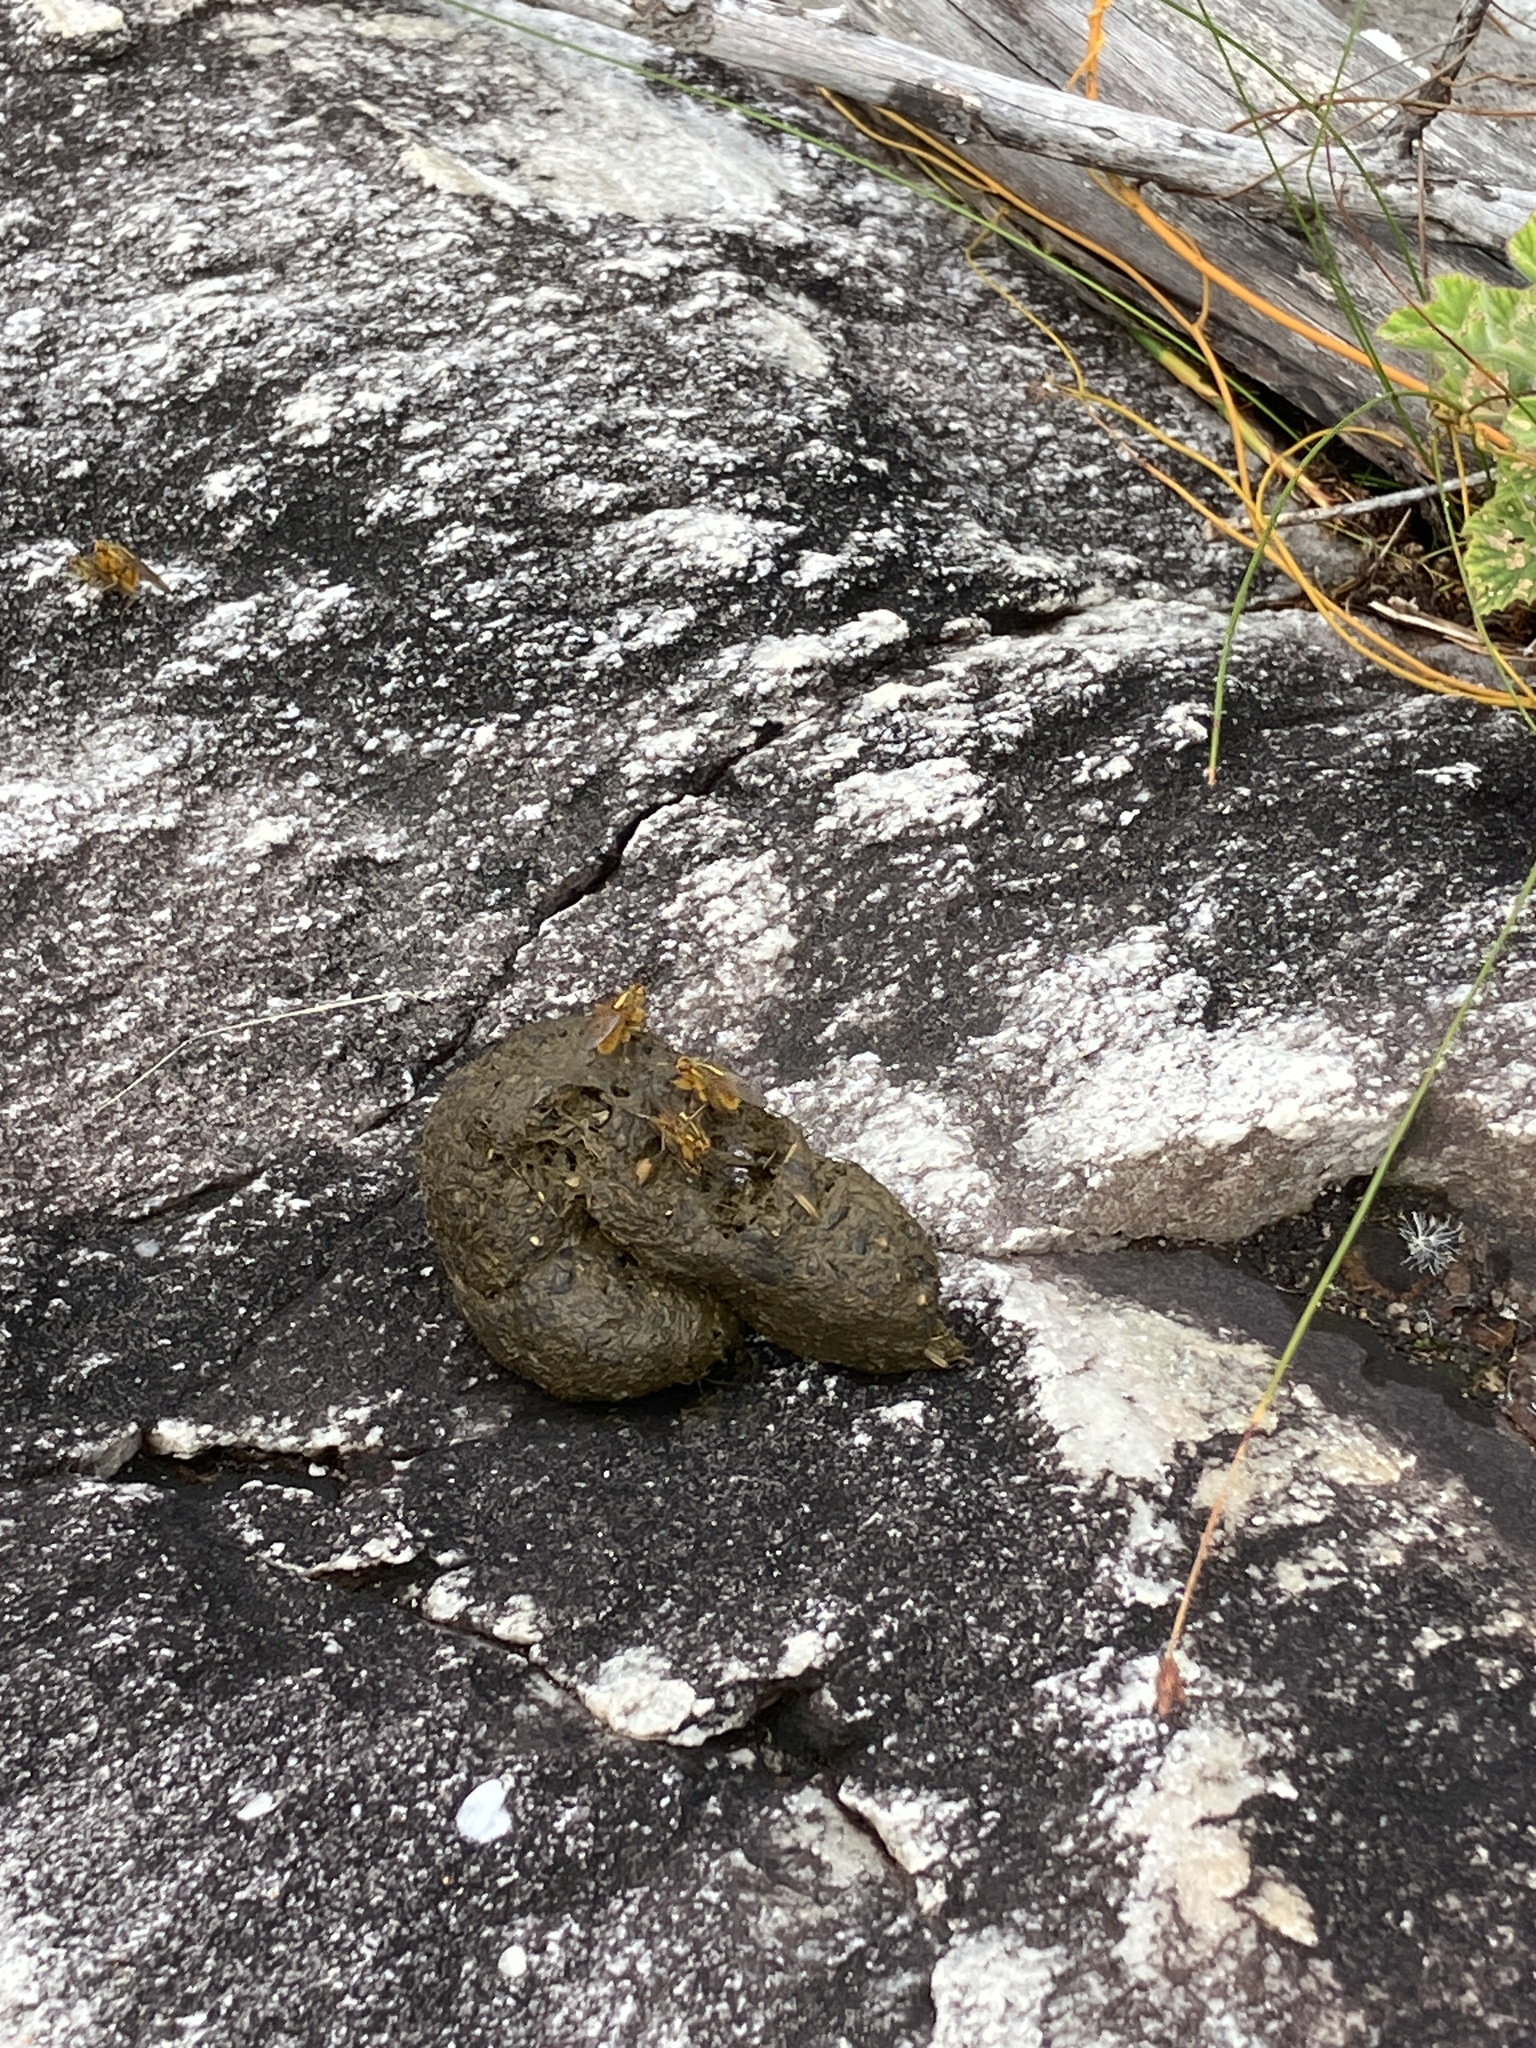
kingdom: Animalia
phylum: Chordata
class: Mammalia
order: Primates
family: Cercopithecidae
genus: Papio
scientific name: Papio ursinus
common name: Chacma baboon
